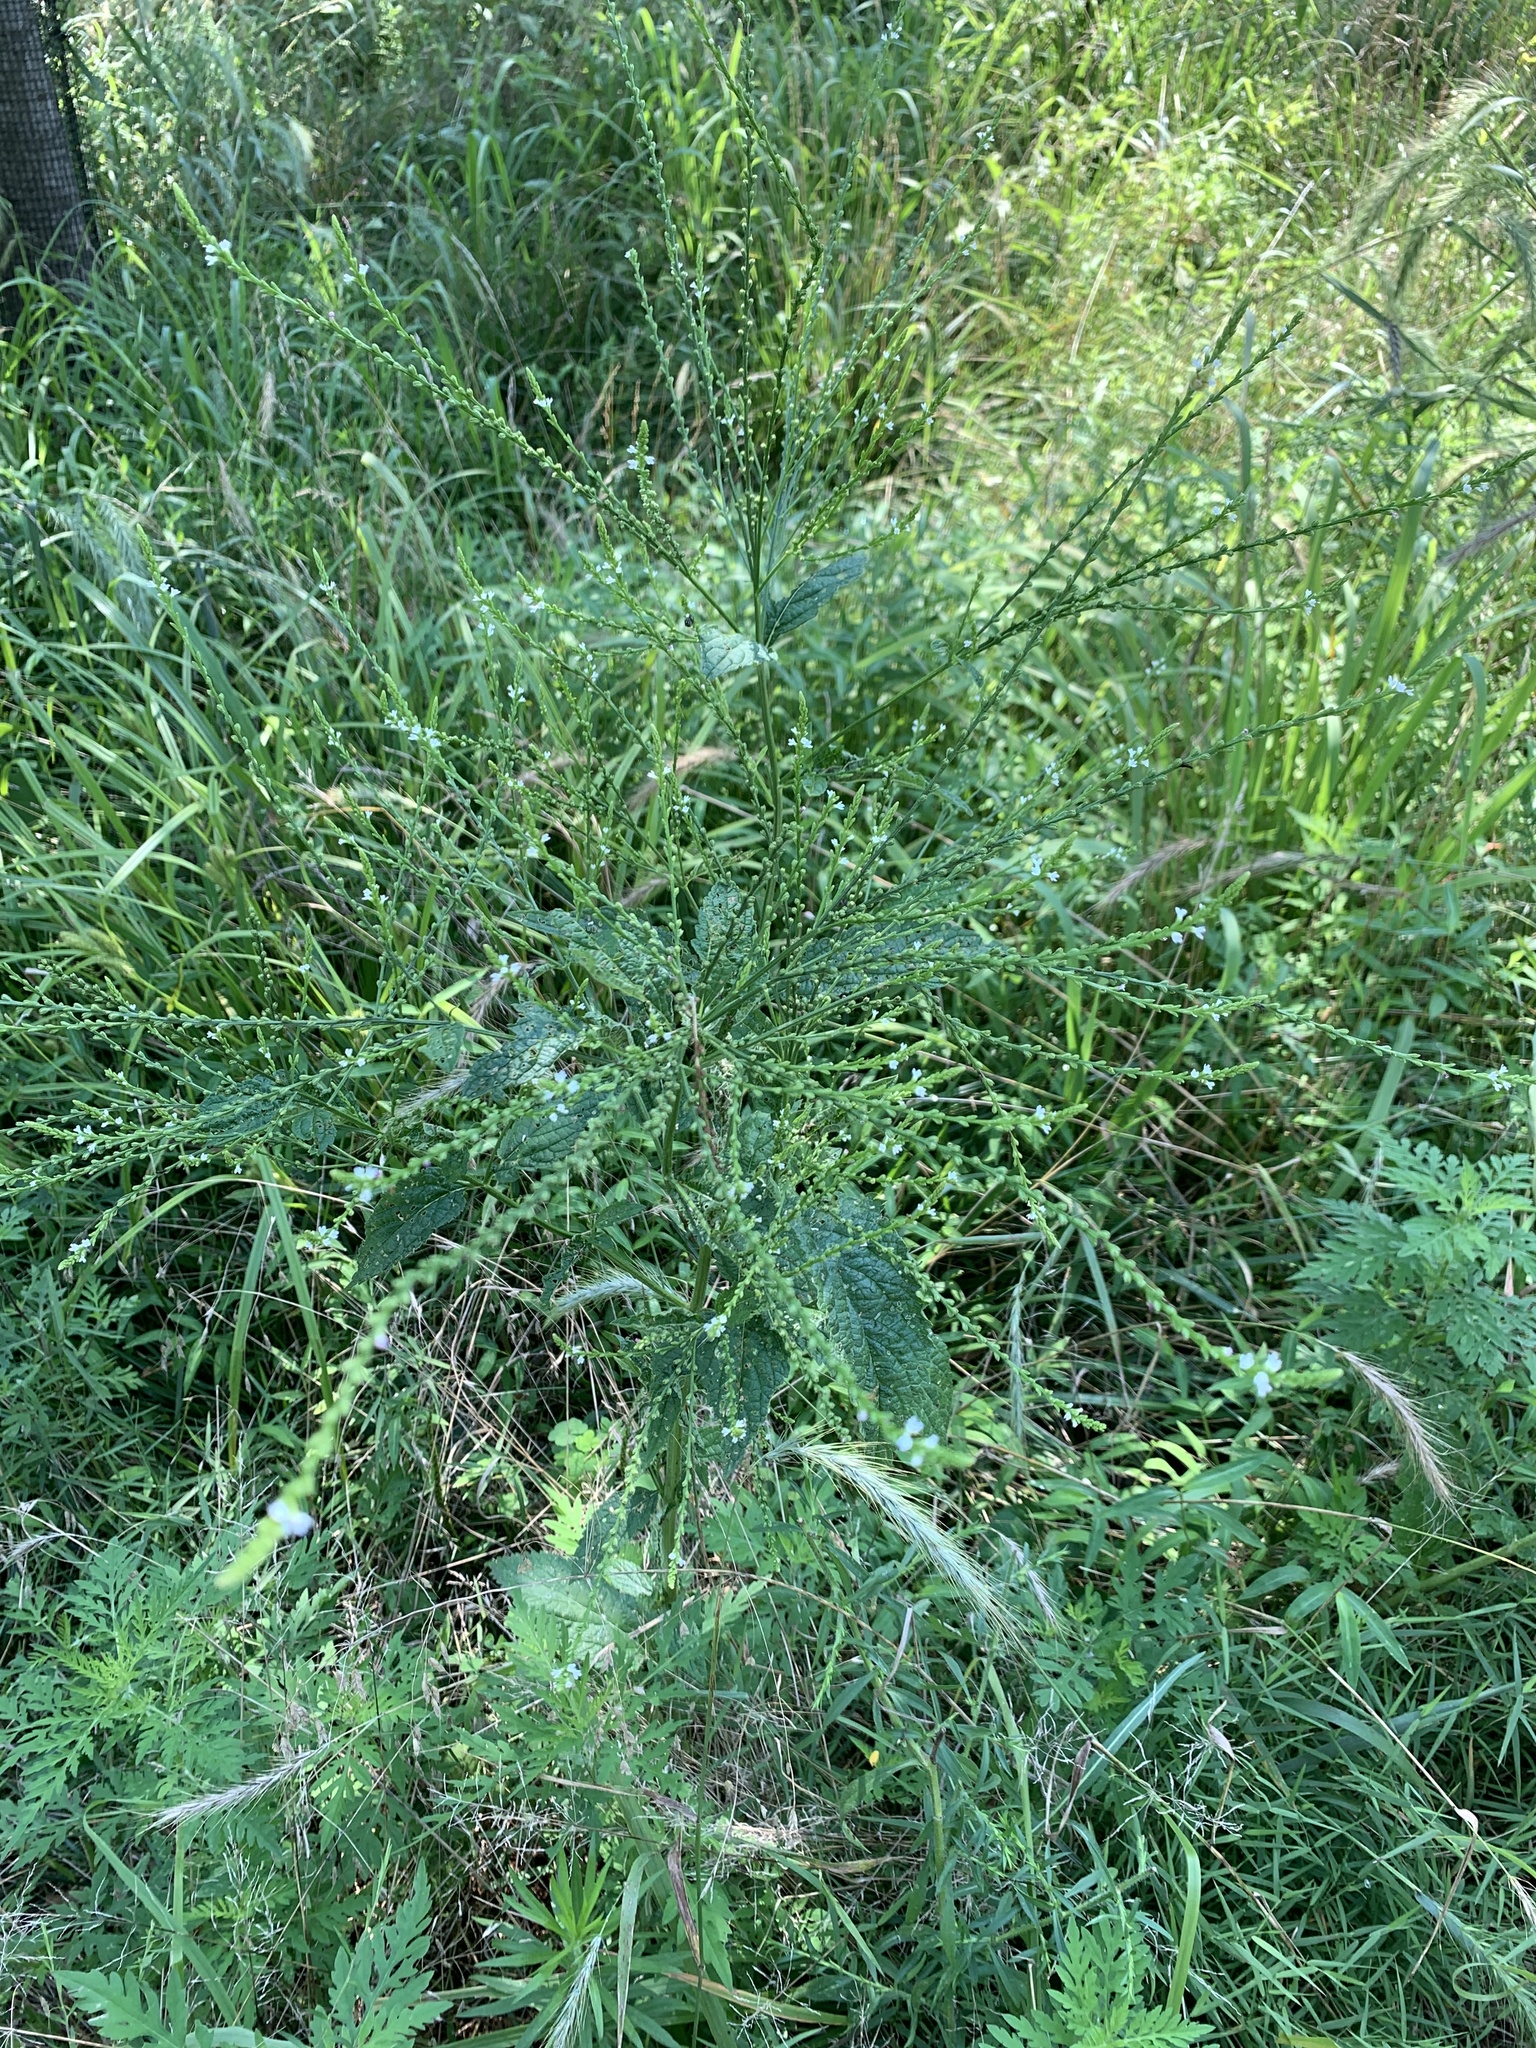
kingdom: Plantae
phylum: Tracheophyta
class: Magnoliopsida
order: Lamiales
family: Verbenaceae
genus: Verbena
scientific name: Verbena urticifolia
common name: Nettle-leaved vervain
